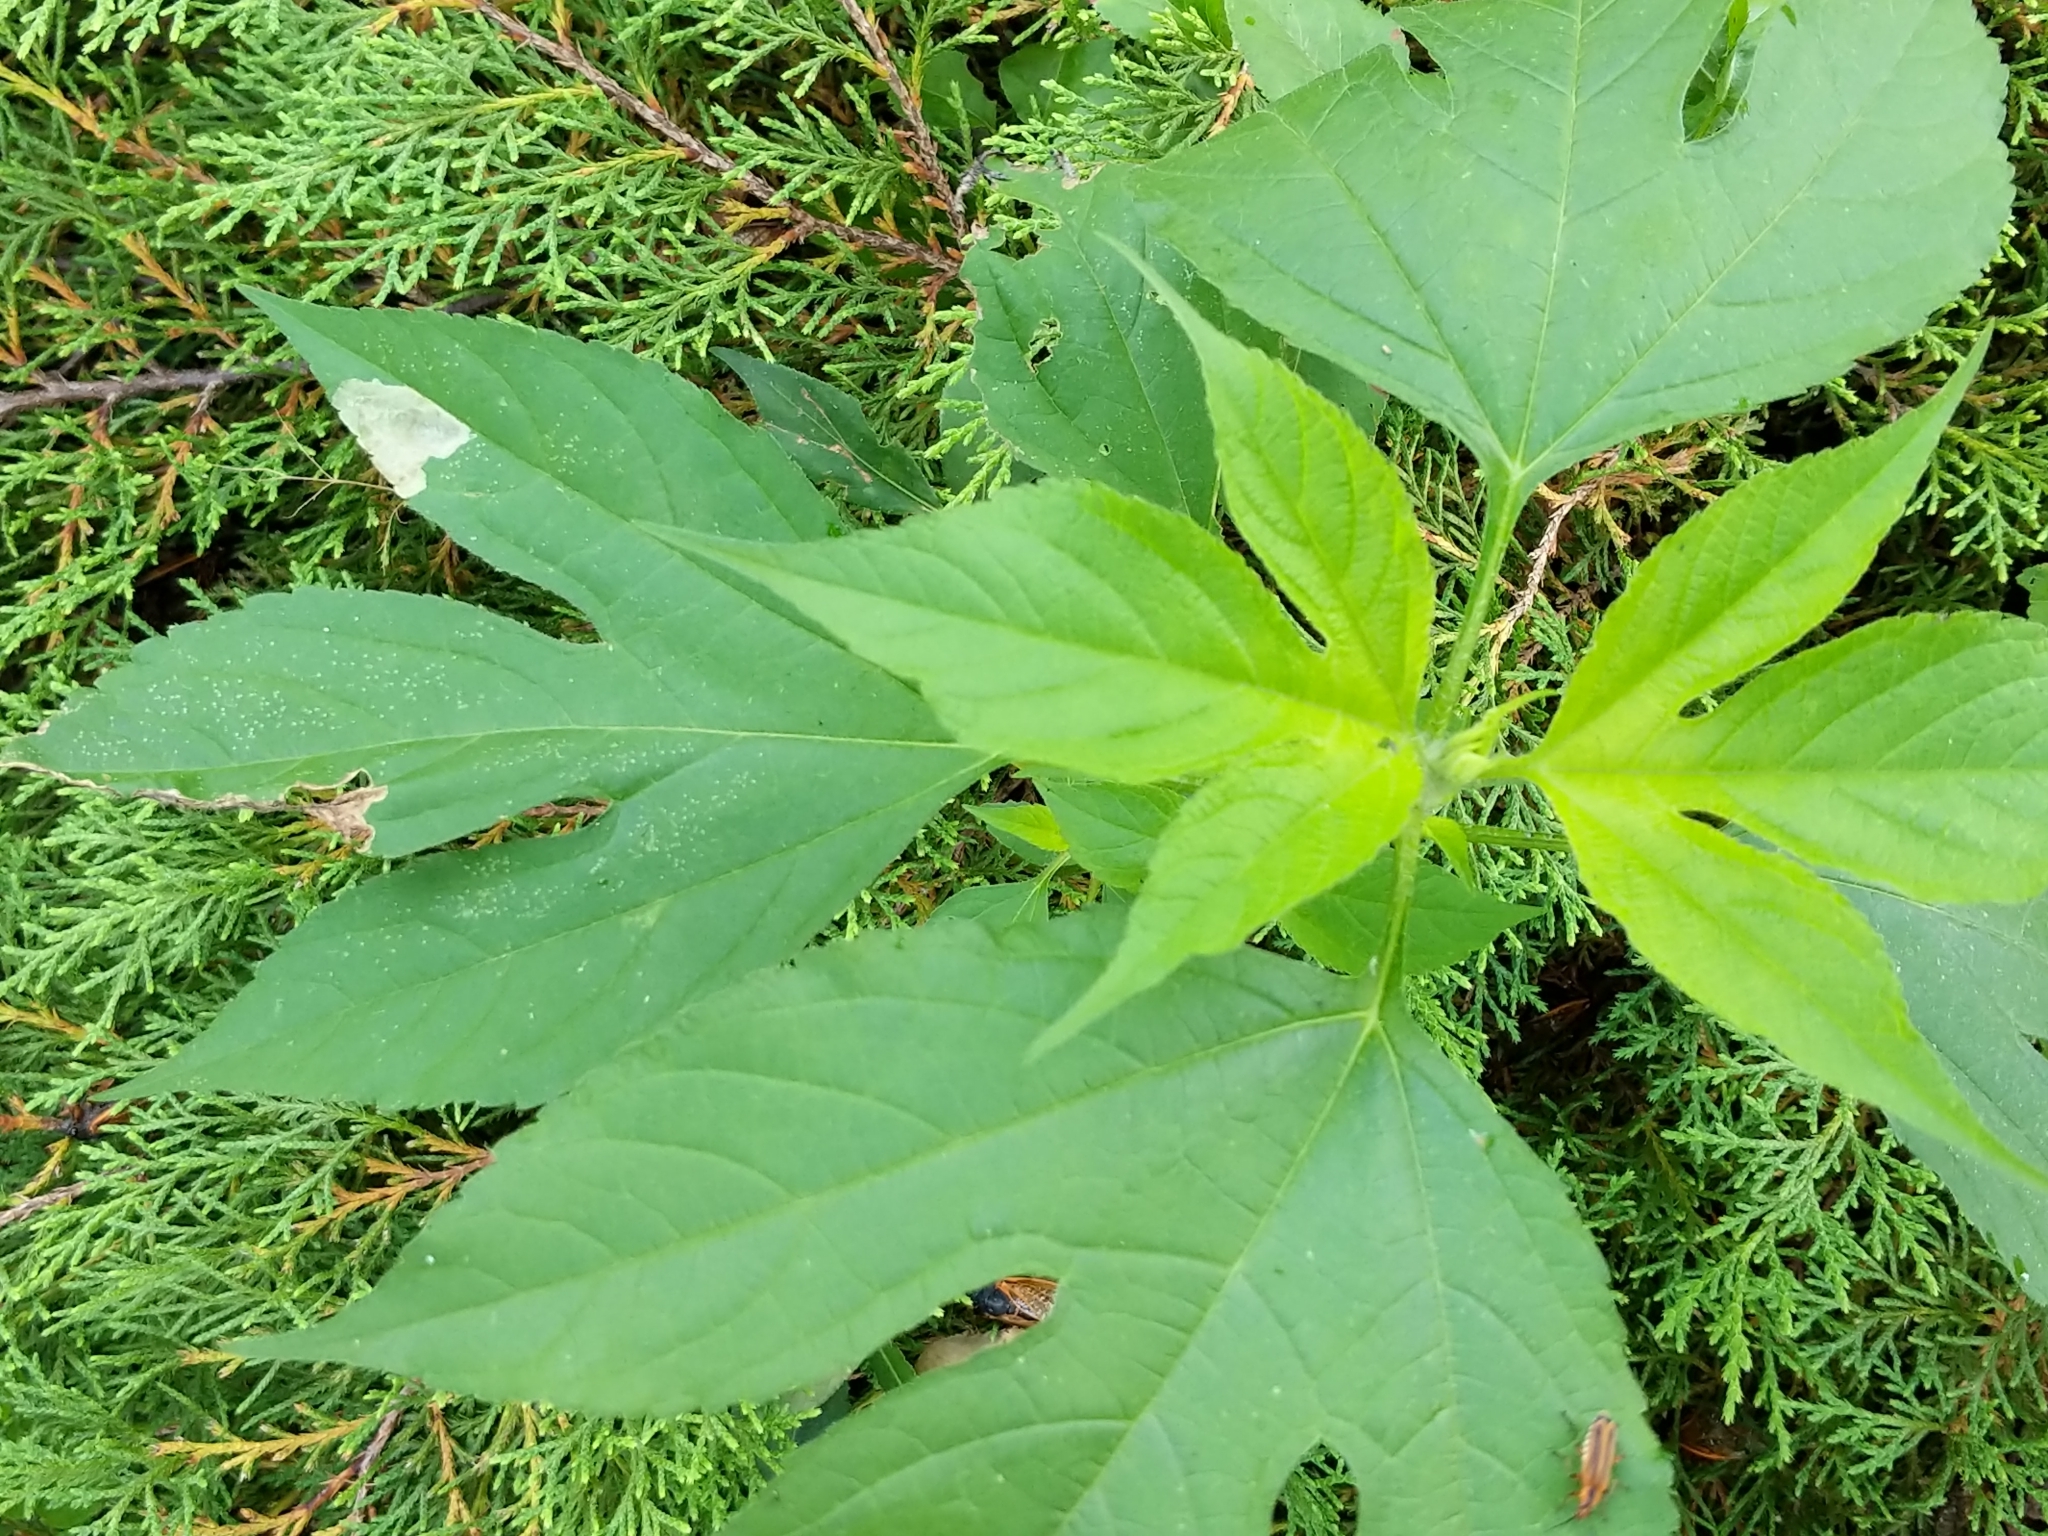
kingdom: Plantae
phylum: Tracheophyta
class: Magnoliopsida
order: Asterales
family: Asteraceae
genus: Ambrosia
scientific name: Ambrosia trifida
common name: Giant ragweed
